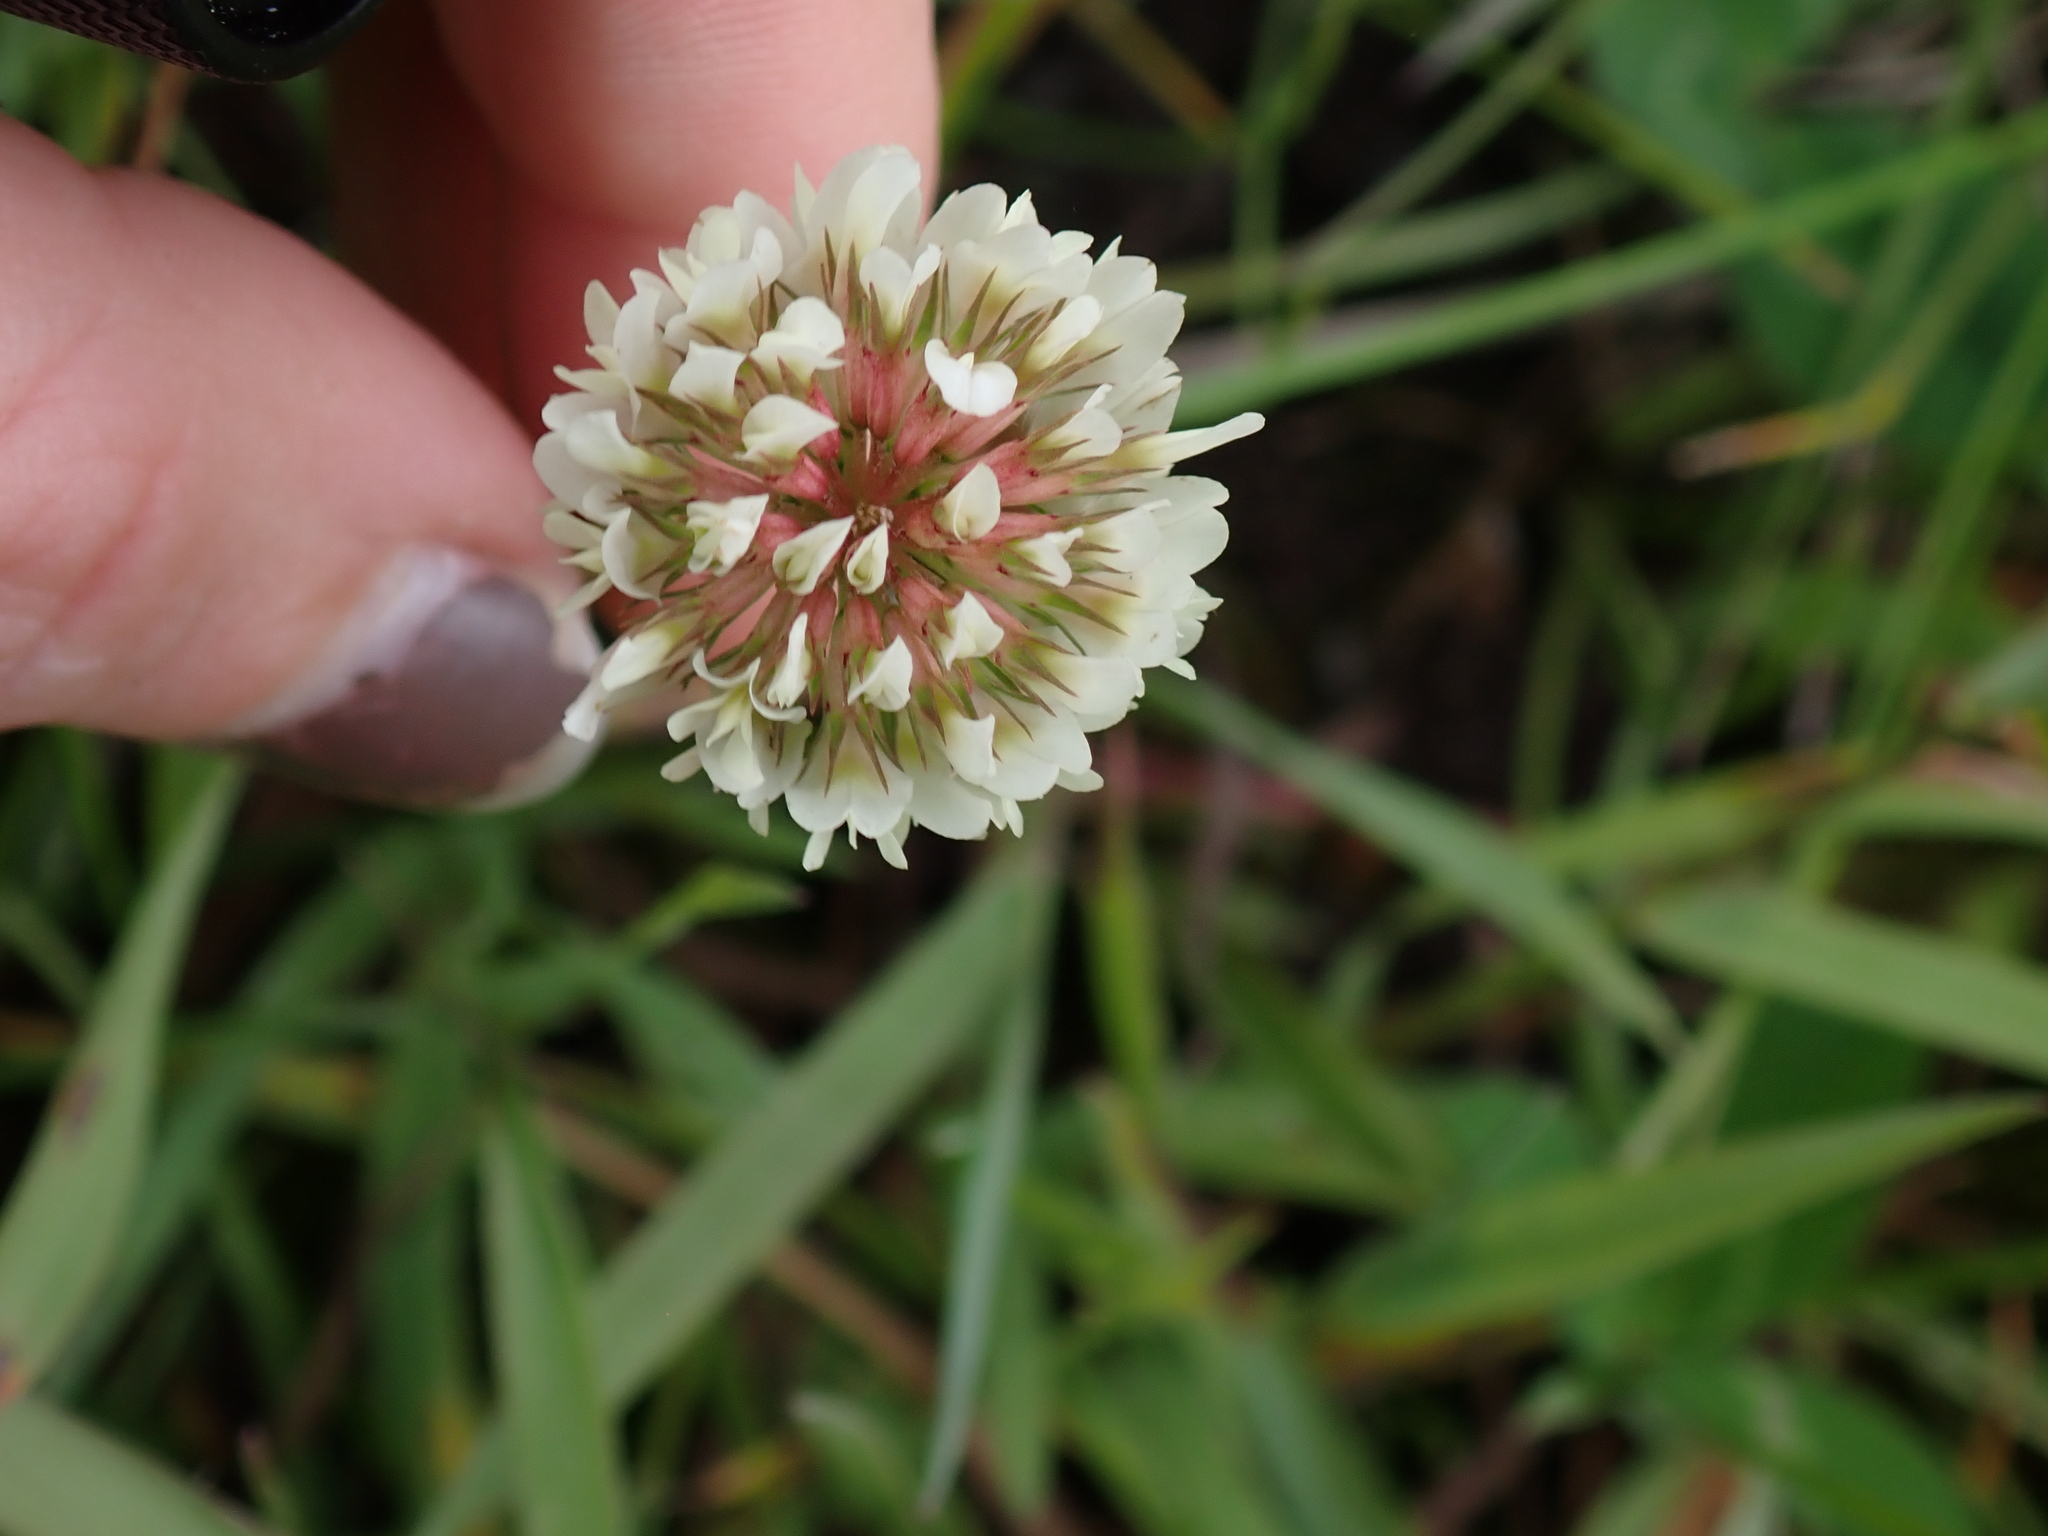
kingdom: Plantae
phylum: Tracheophyta
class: Magnoliopsida
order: Fabales
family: Fabaceae
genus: Trifolium
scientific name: Trifolium repens
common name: White clover
